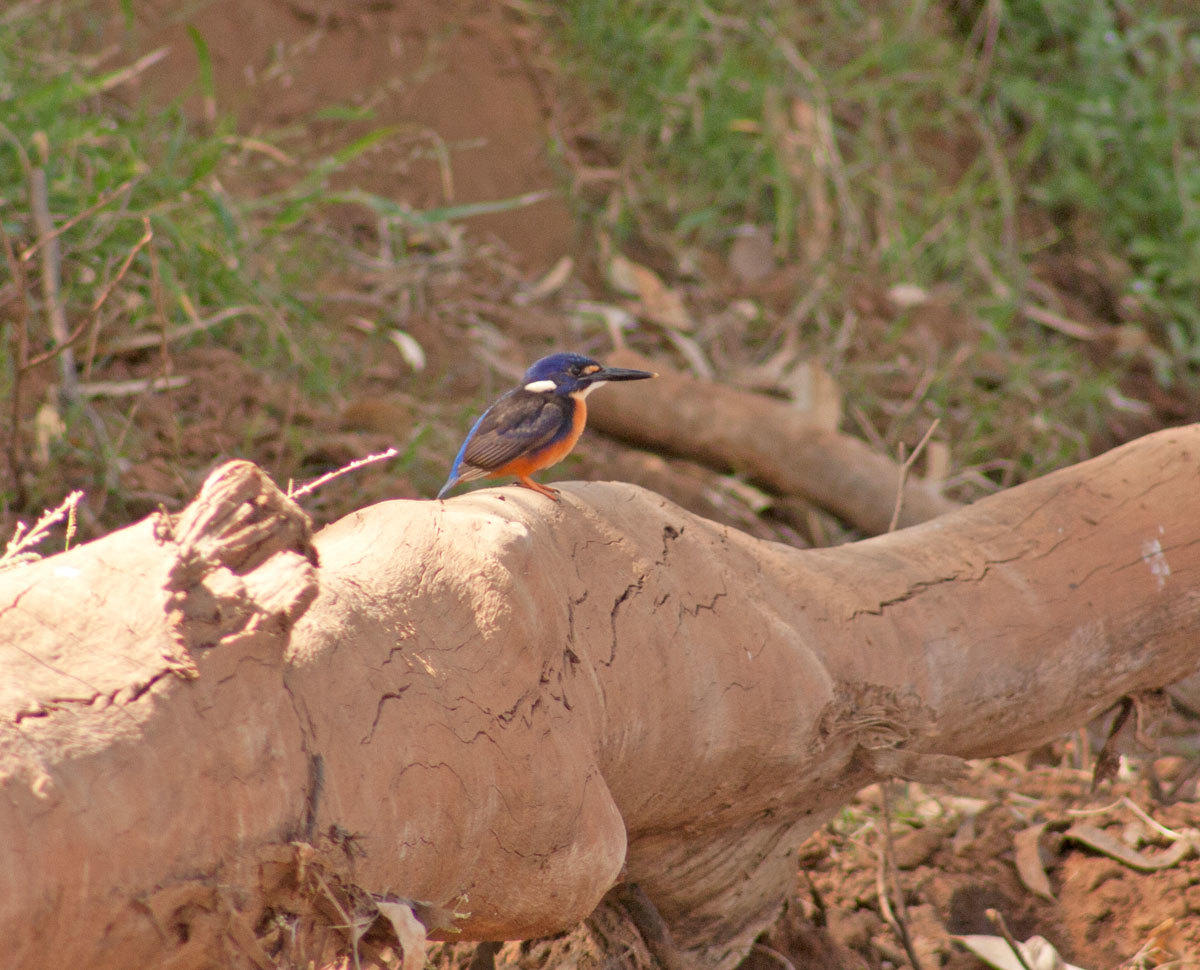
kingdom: Animalia
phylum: Chordata
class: Aves
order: Coraciiformes
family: Alcedinidae
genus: Ceyx
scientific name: Ceyx azureus
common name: Azure kingfisher
